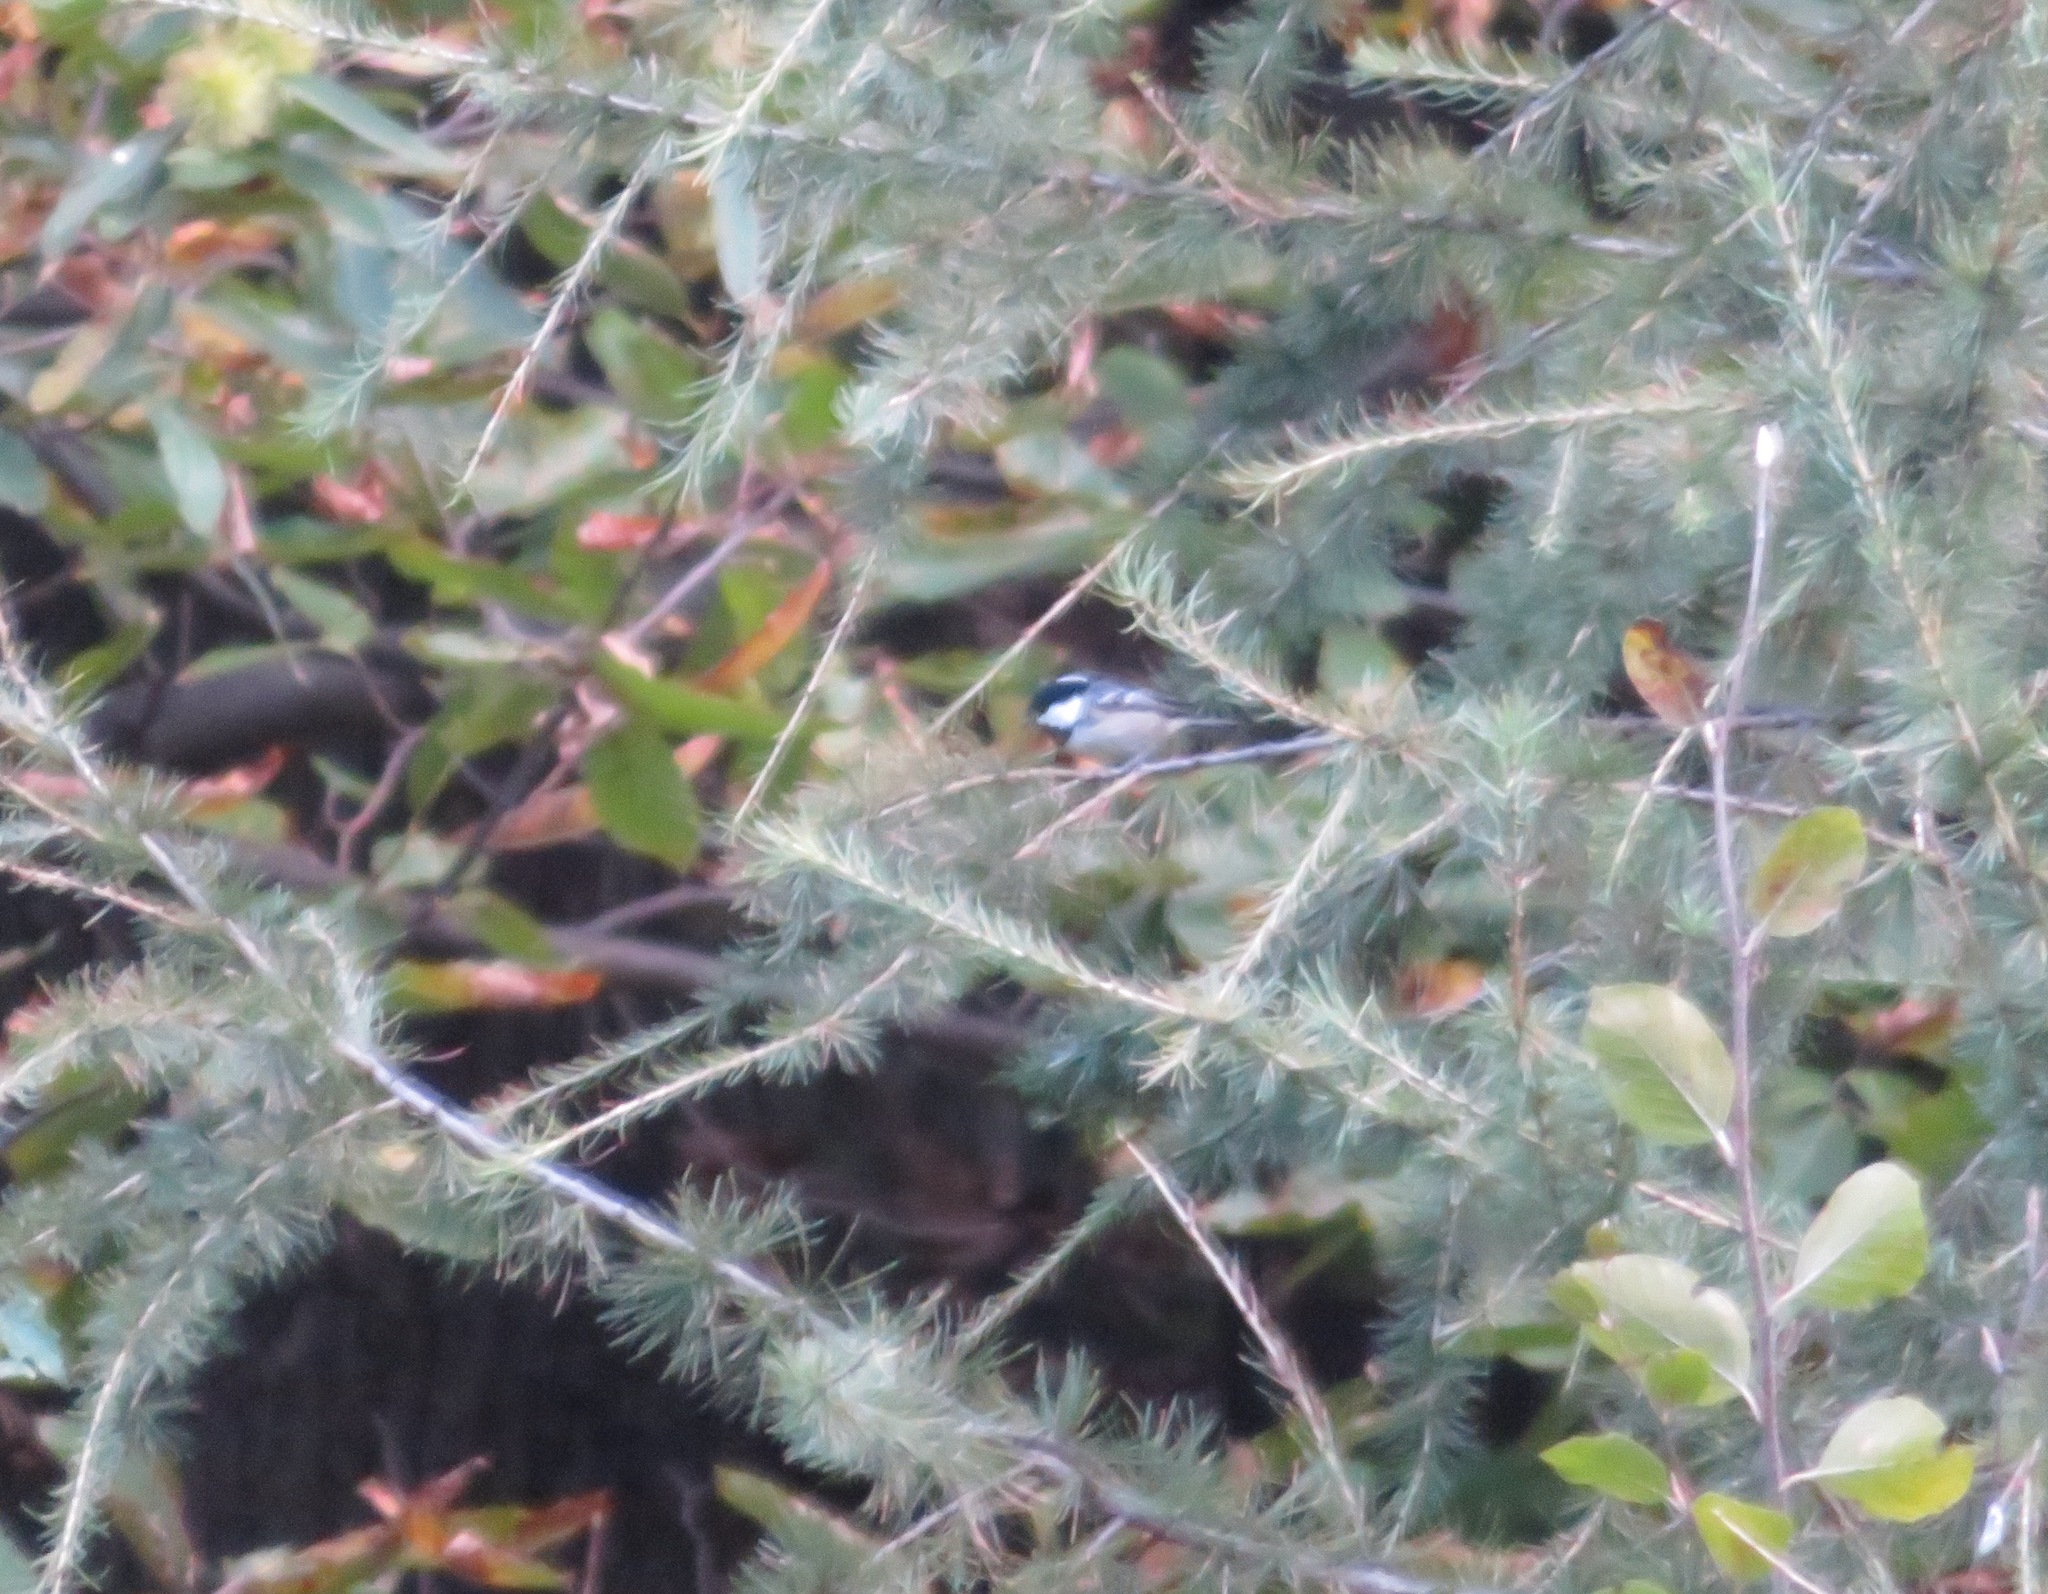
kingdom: Animalia
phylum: Chordata
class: Aves
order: Passeriformes
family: Paridae
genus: Periparus
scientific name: Periparus ater
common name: Coal tit
